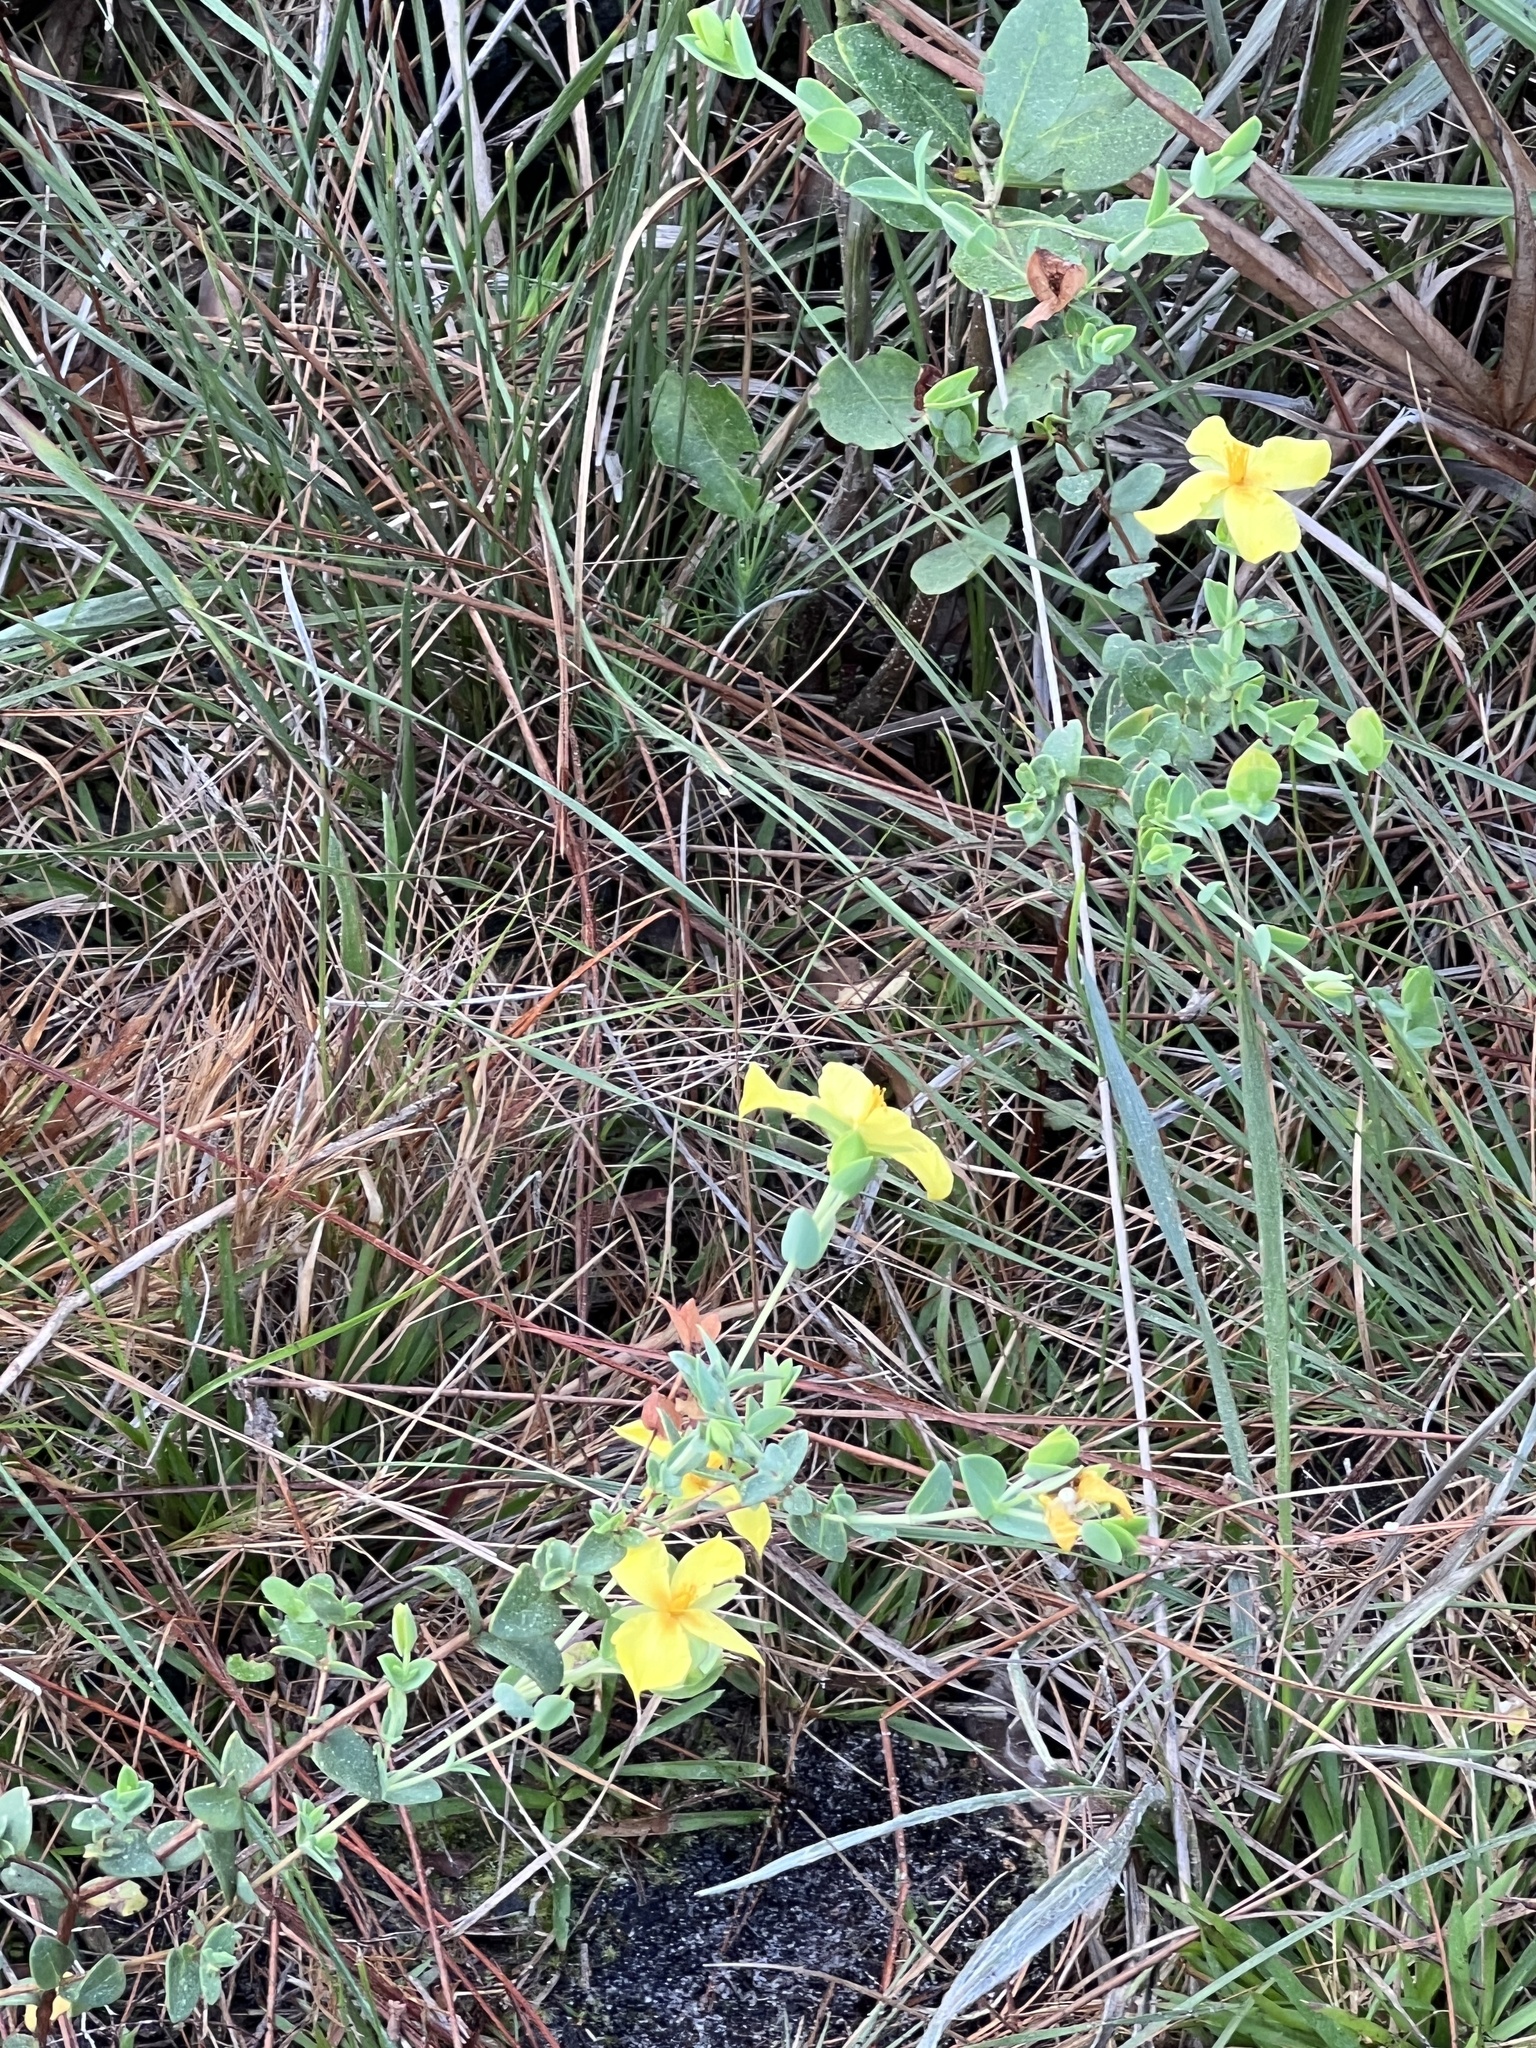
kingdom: Plantae
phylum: Tracheophyta
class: Magnoliopsida
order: Malpighiales
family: Hypericaceae
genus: Hypericum
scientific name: Hypericum tetrapetalum
